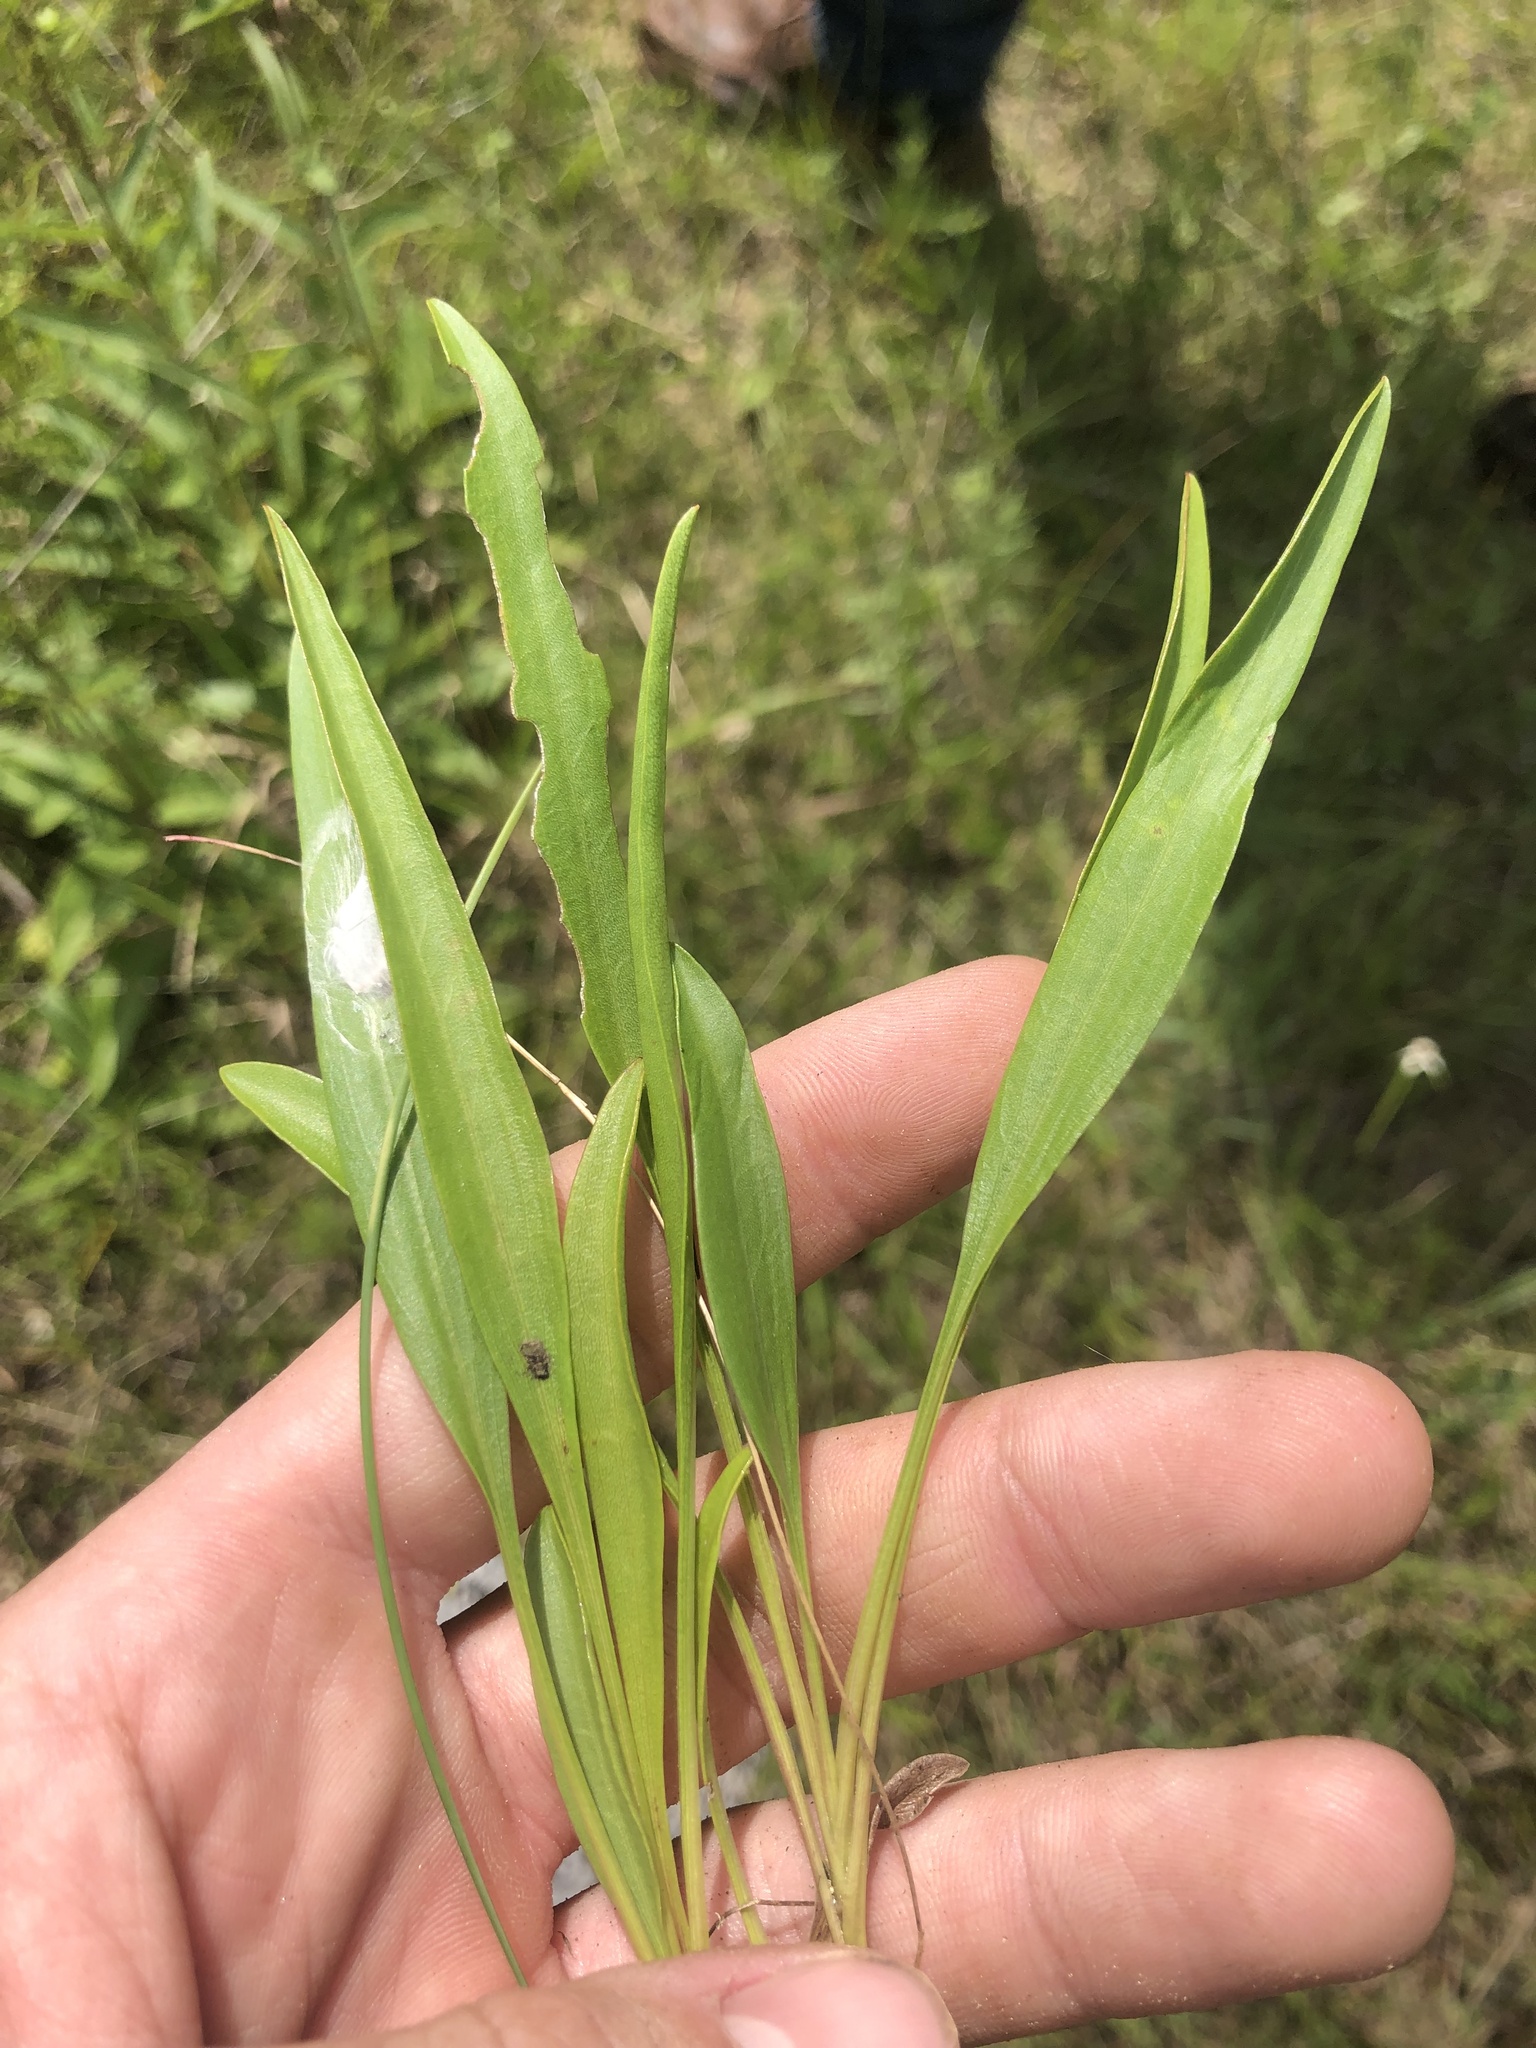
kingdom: Plantae
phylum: Tracheophyta
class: Magnoliopsida
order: Asterales
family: Asteraceae
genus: Coreopsis
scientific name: Coreopsis grandiflora
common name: Large-flowered tickseed
